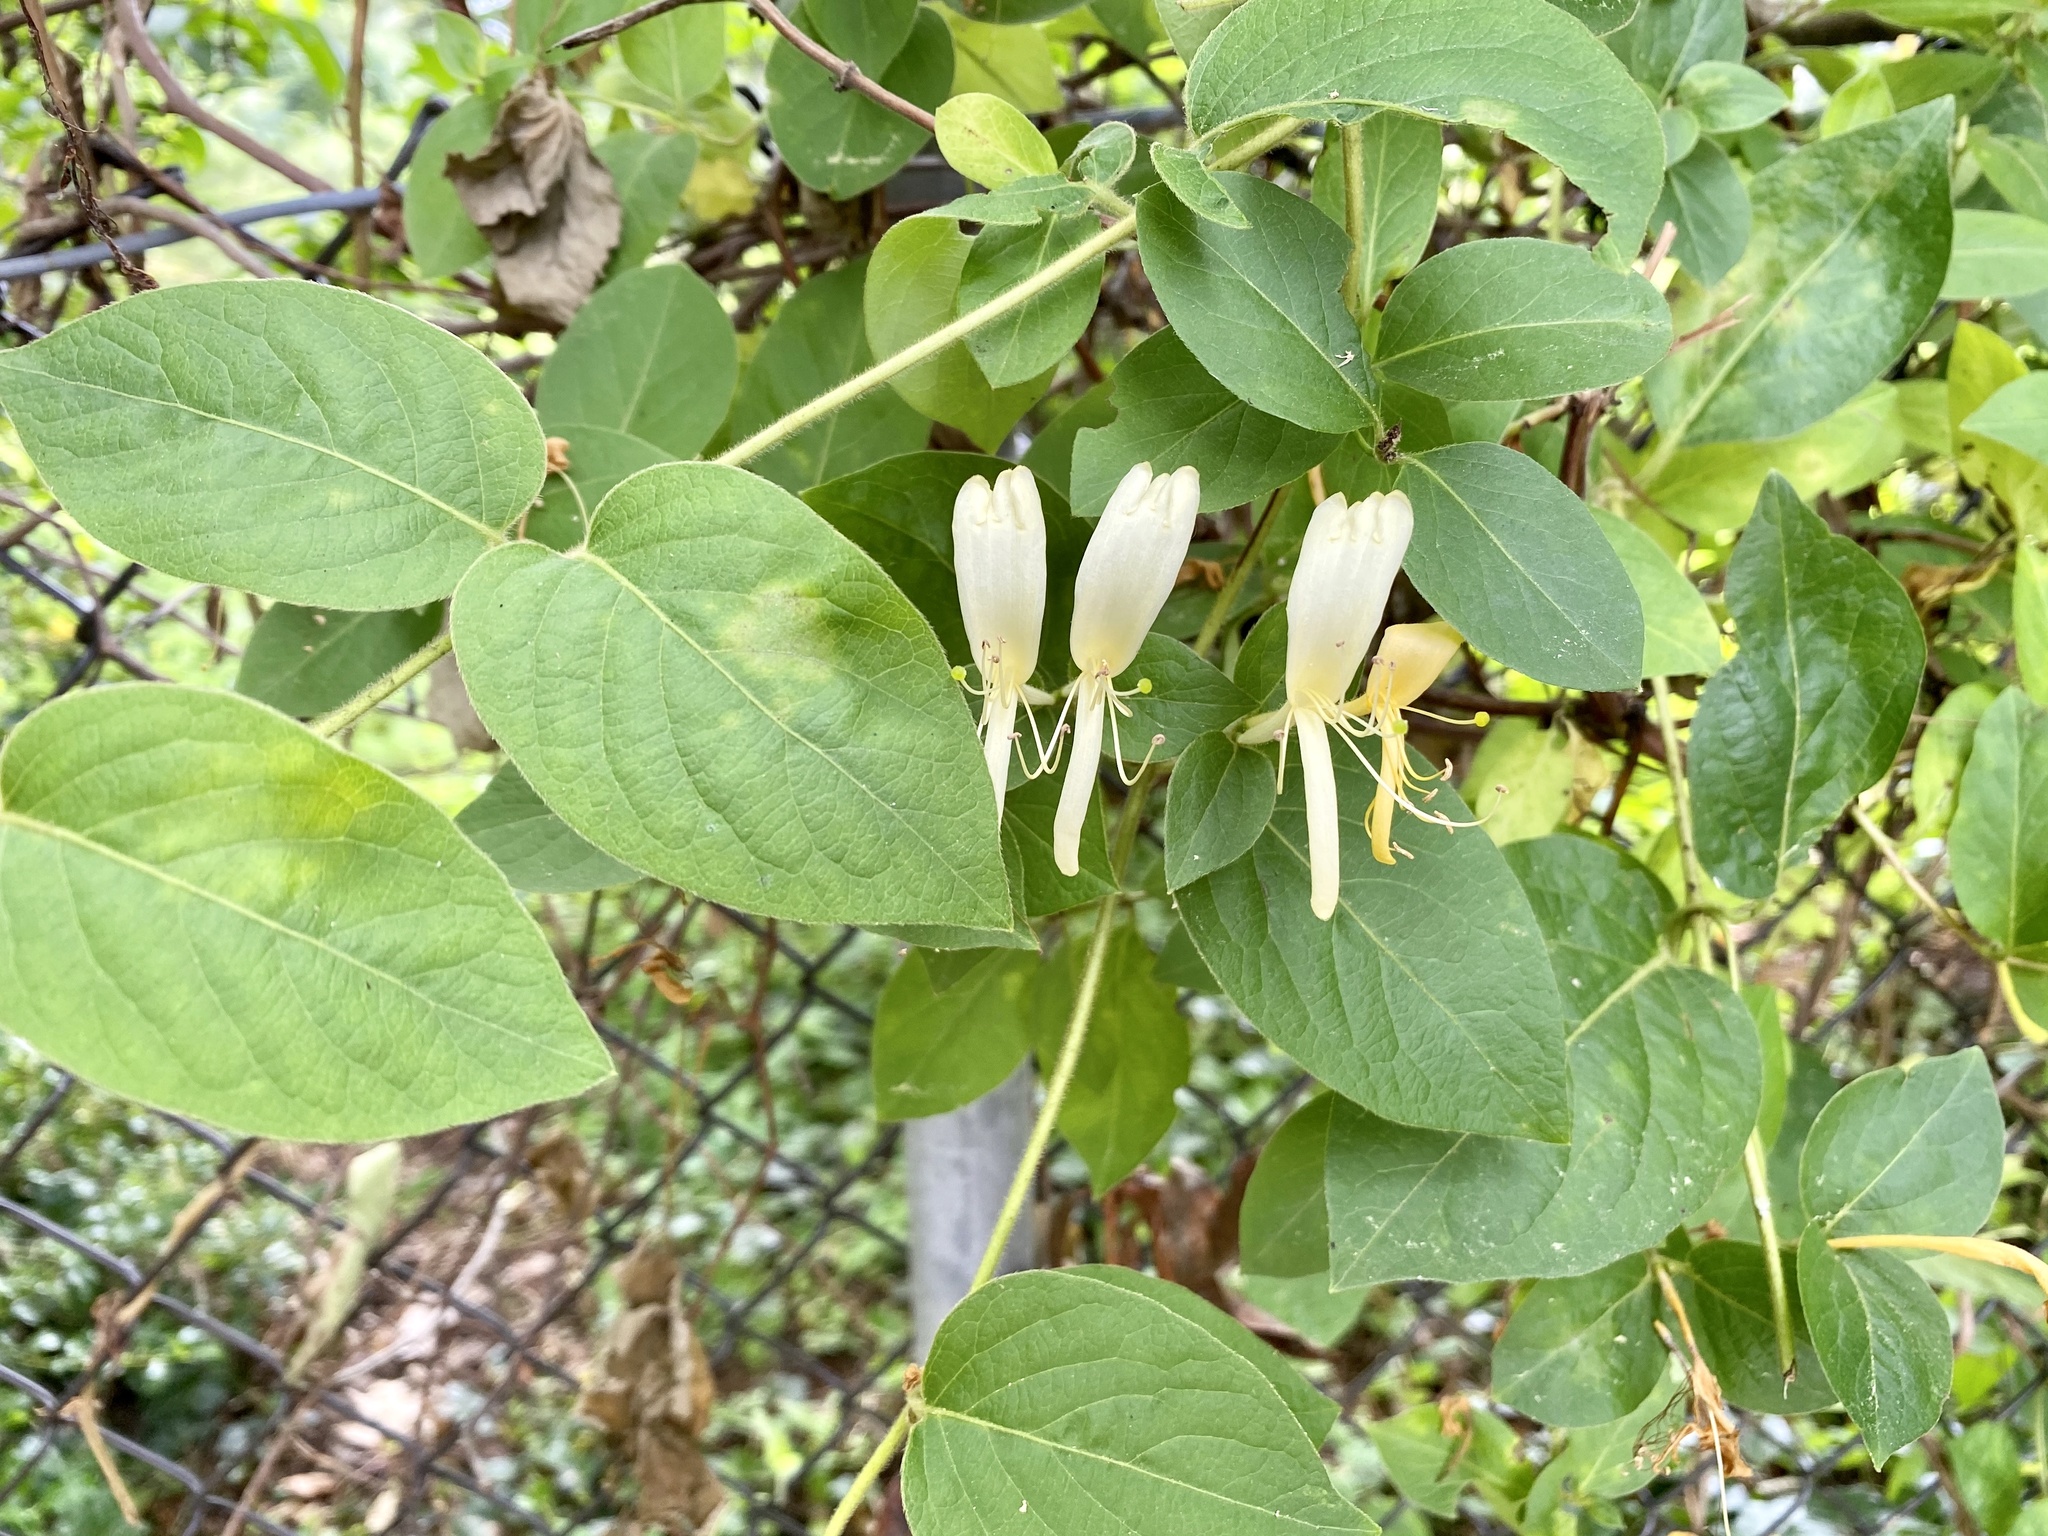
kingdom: Plantae
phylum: Tracheophyta
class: Magnoliopsida
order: Dipsacales
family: Caprifoliaceae
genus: Lonicera
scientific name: Lonicera japonica
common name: Japanese honeysuckle
